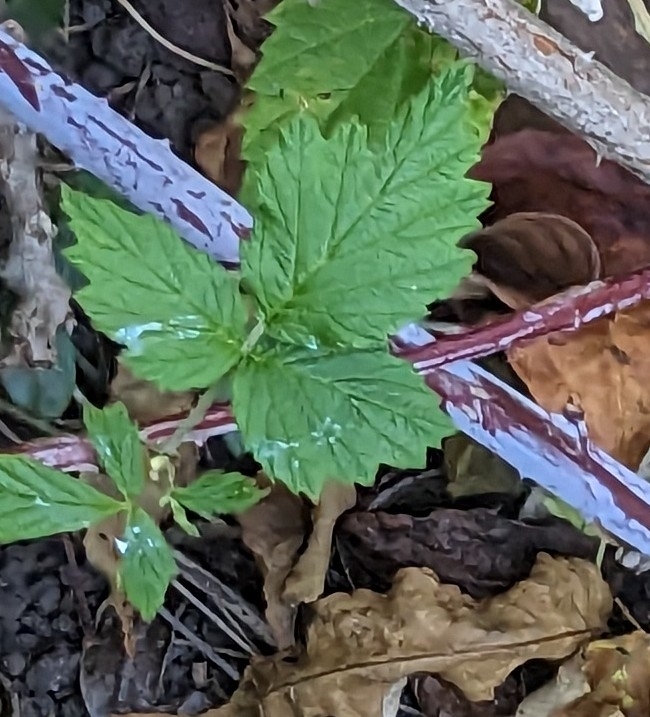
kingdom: Plantae
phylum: Tracheophyta
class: Magnoliopsida
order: Rosales
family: Rosaceae
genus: Rubus
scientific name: Rubus occidentalis
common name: Black raspberry
